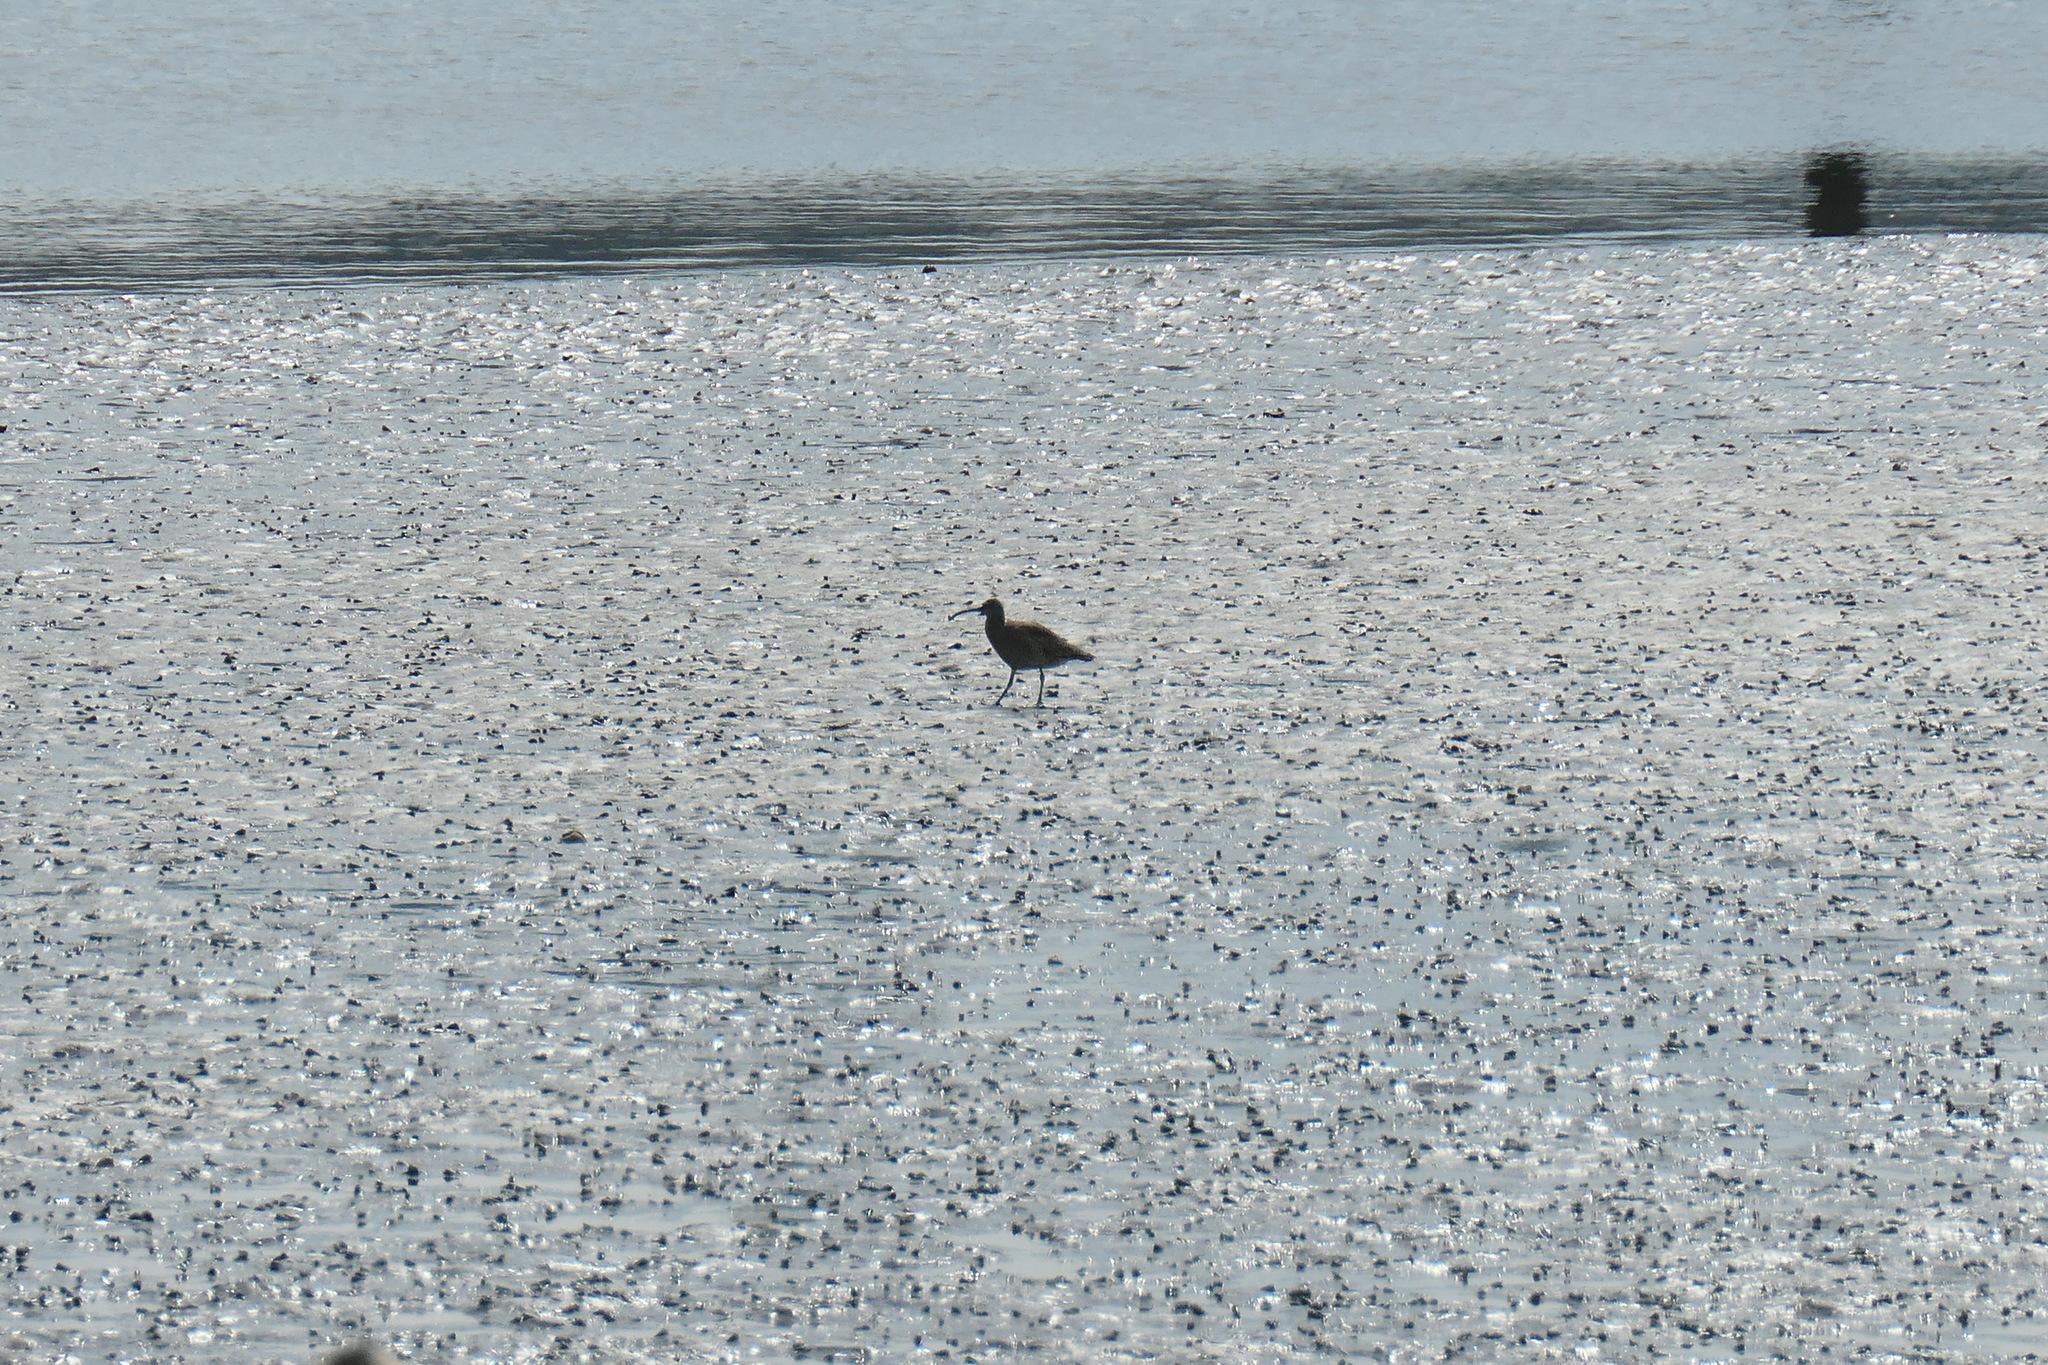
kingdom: Animalia
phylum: Chordata
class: Aves
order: Charadriiformes
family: Scolopacidae
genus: Numenius
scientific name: Numenius phaeopus
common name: Whimbrel
